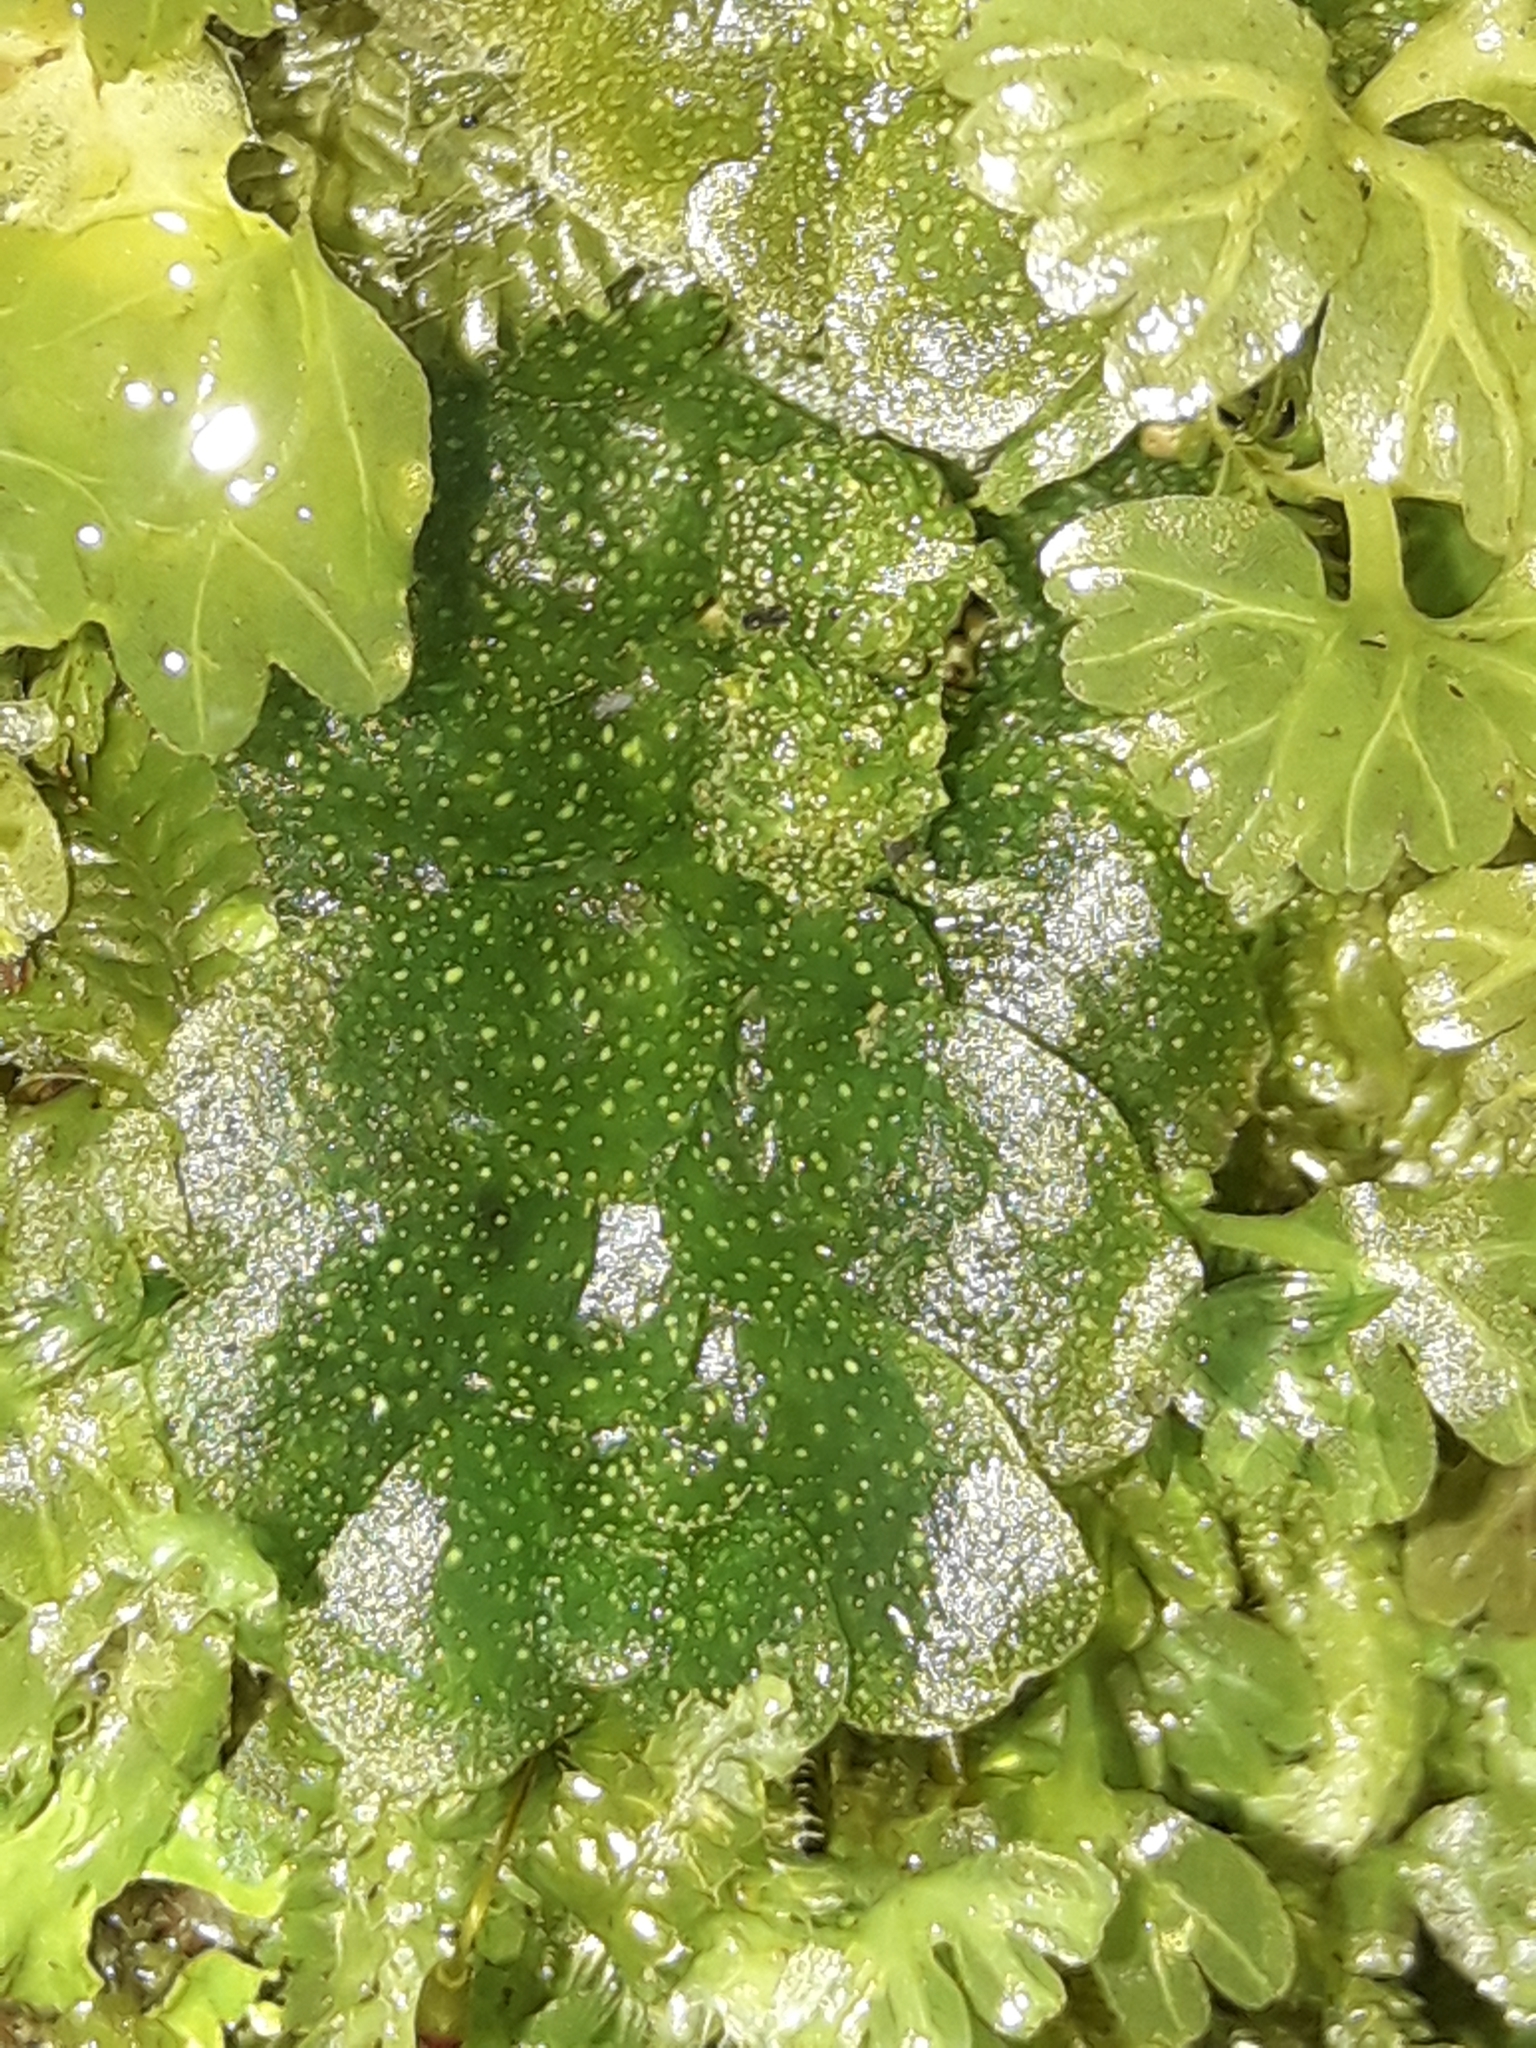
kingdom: Plantae
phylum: Marchantiophyta
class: Haplomitriopsida
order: Treubiales
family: Treubiaceae
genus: Treubia
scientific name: Treubia lacunosa
